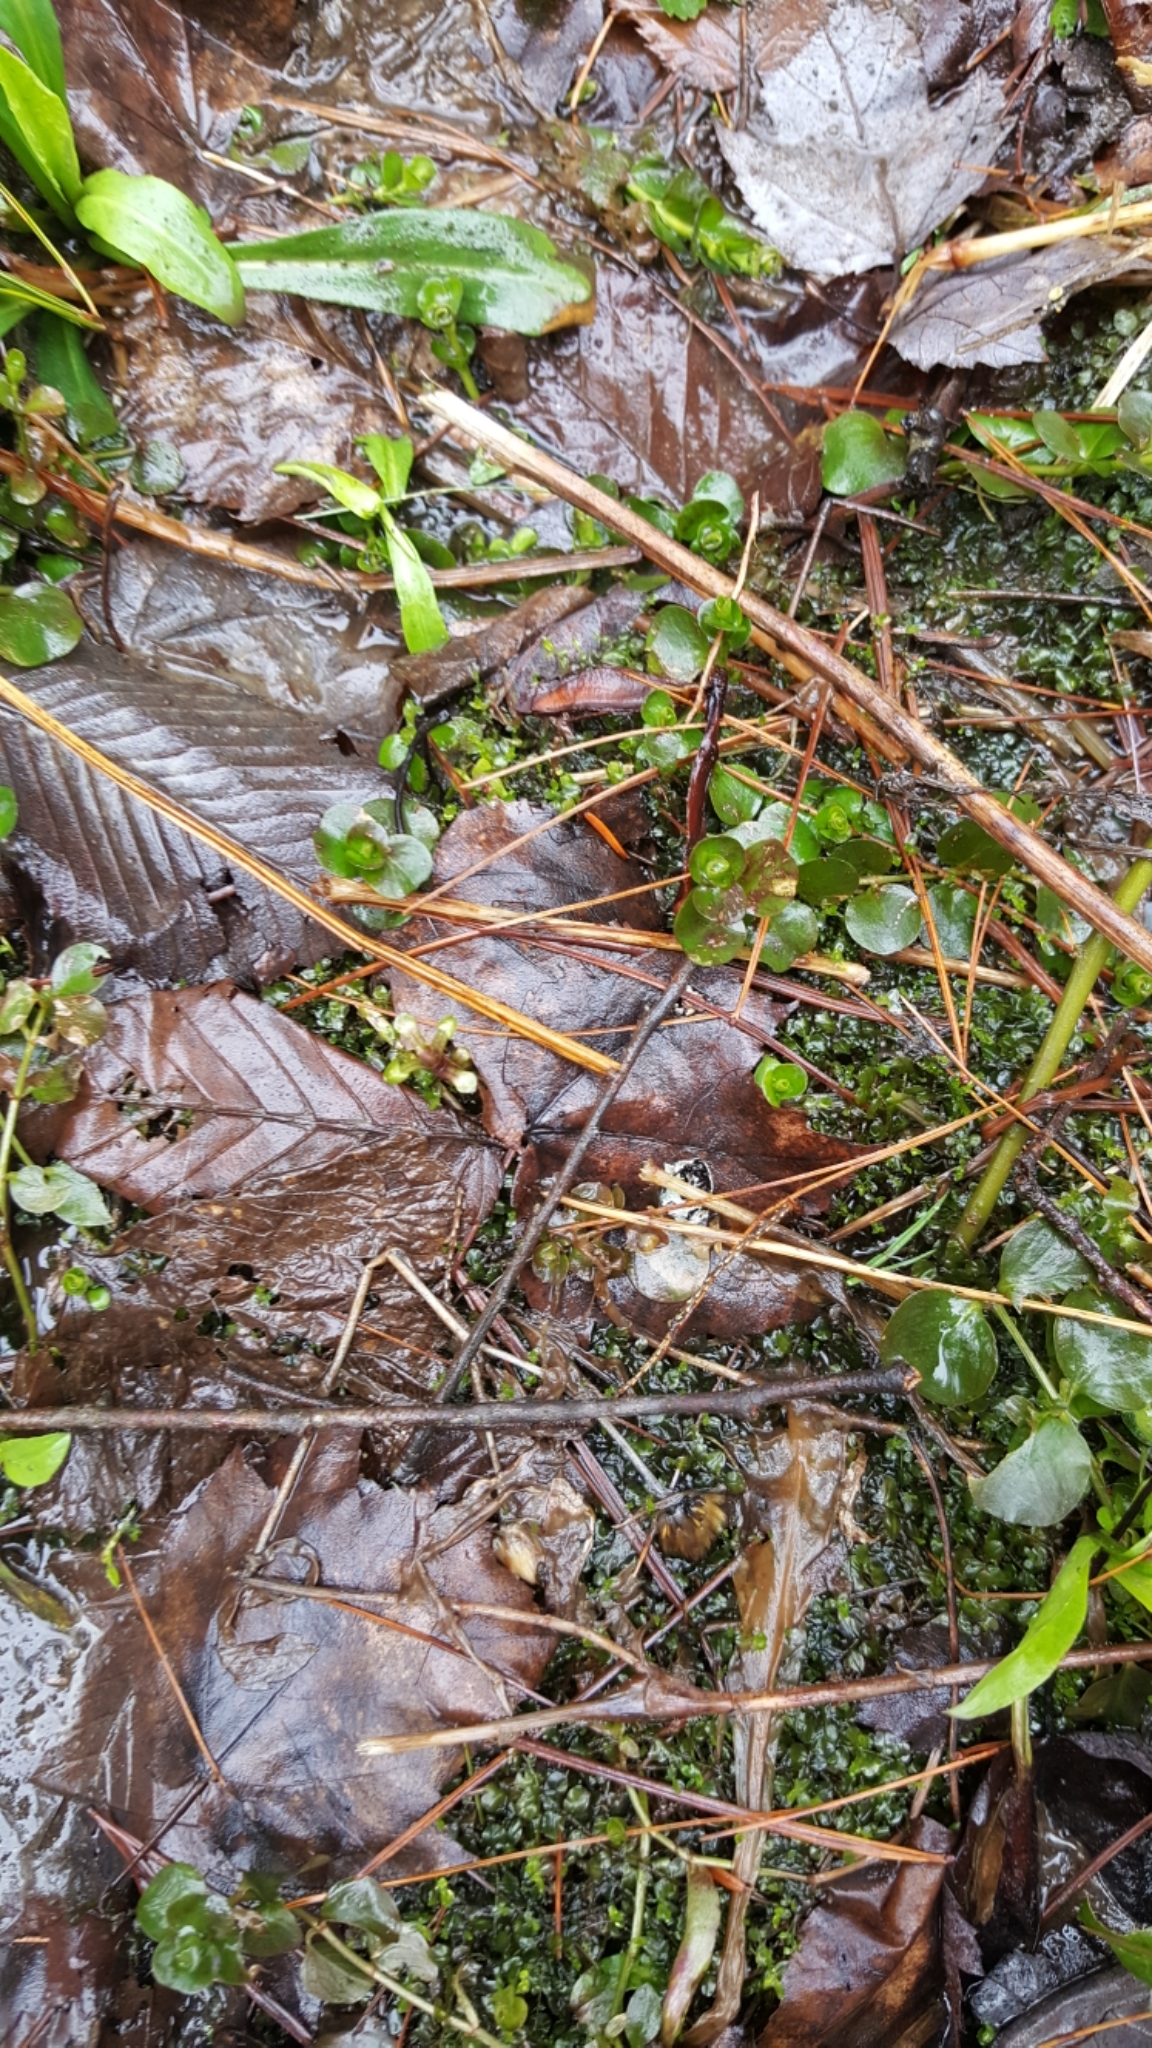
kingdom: Plantae
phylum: Tracheophyta
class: Magnoliopsida
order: Ericales
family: Primulaceae
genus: Lysimachia
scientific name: Lysimachia nummularia
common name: Moneywort
